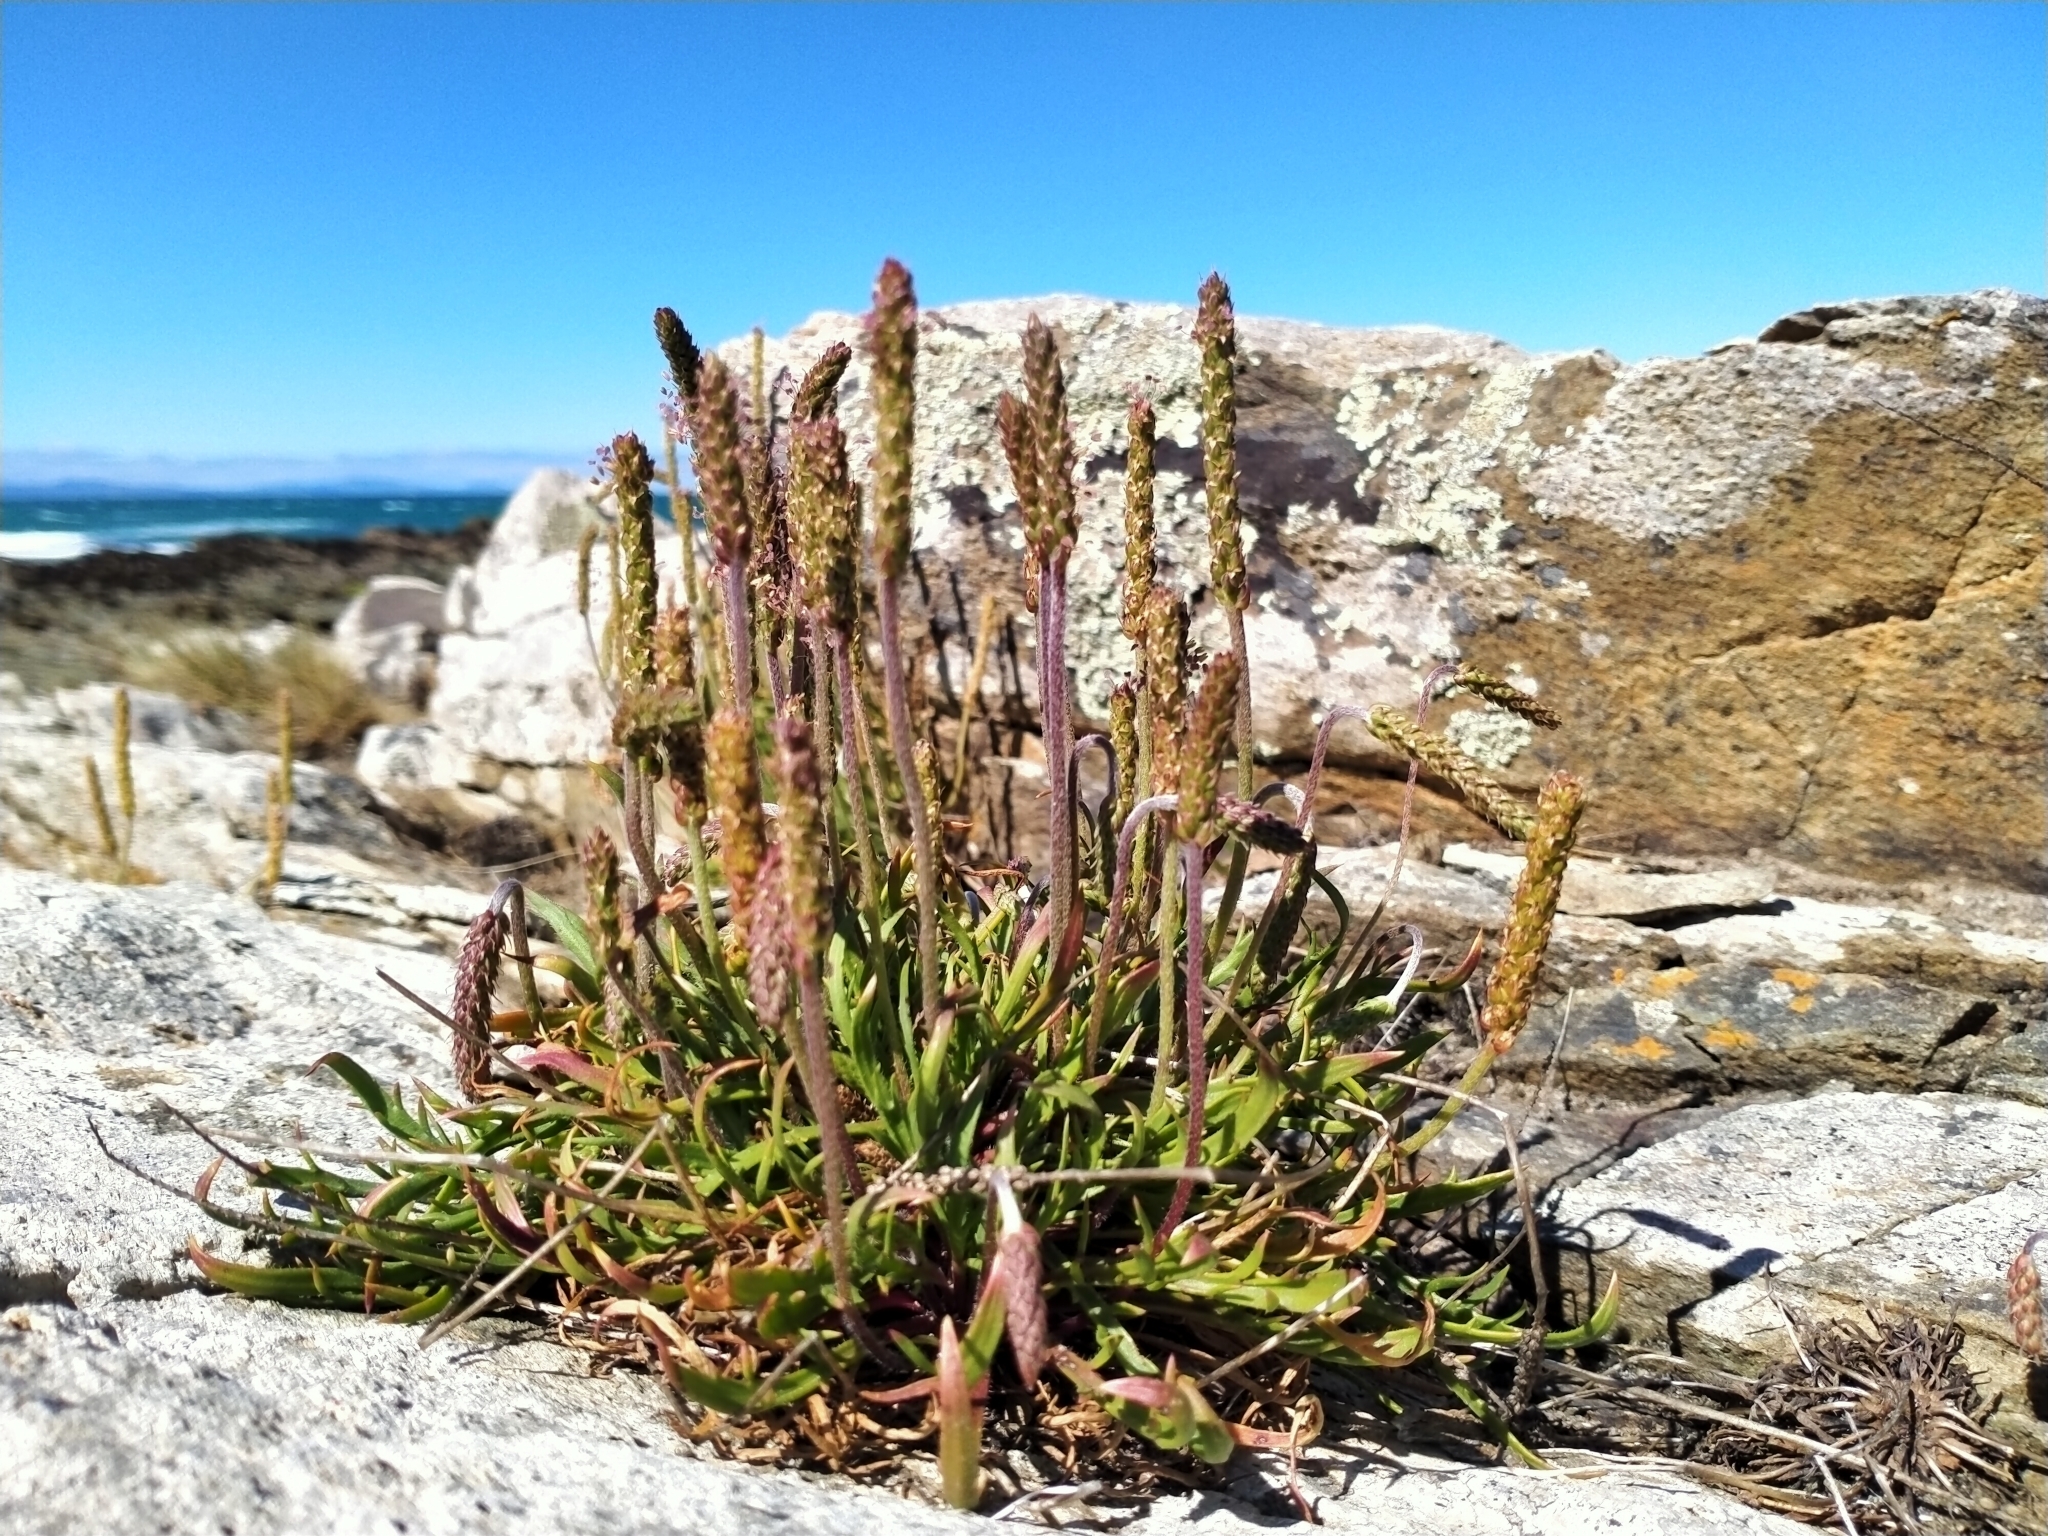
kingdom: Plantae
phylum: Tracheophyta
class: Magnoliopsida
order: Lamiales
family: Plantaginaceae
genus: Plantago
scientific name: Plantago coronopus
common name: Buck's-horn plantain
